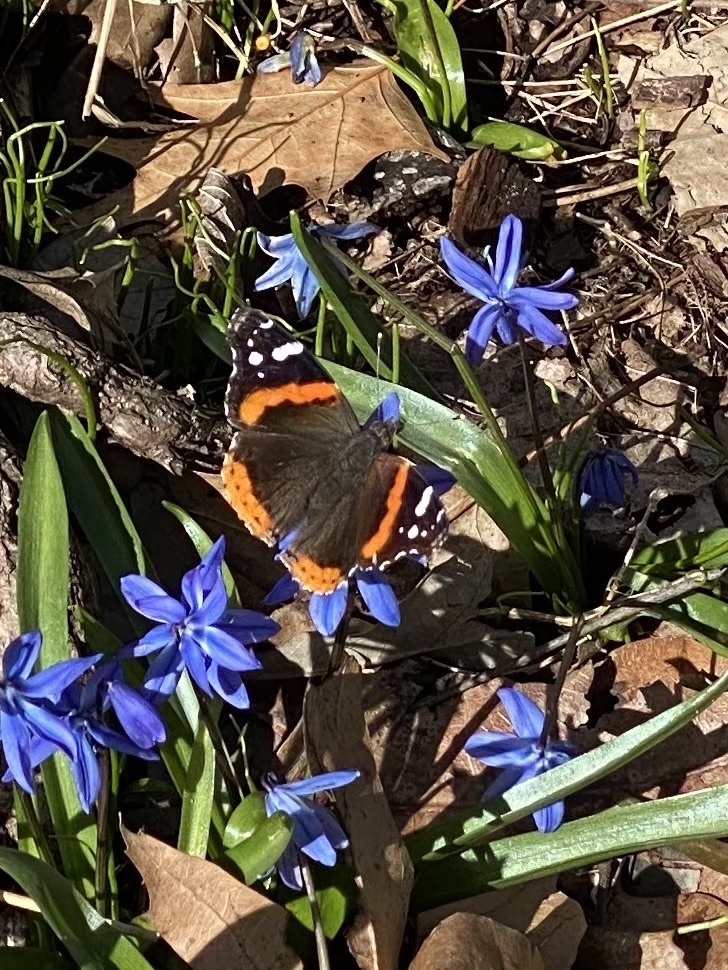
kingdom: Animalia
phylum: Arthropoda
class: Insecta
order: Lepidoptera
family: Nymphalidae
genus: Vanessa
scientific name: Vanessa atalanta
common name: Red admiral
